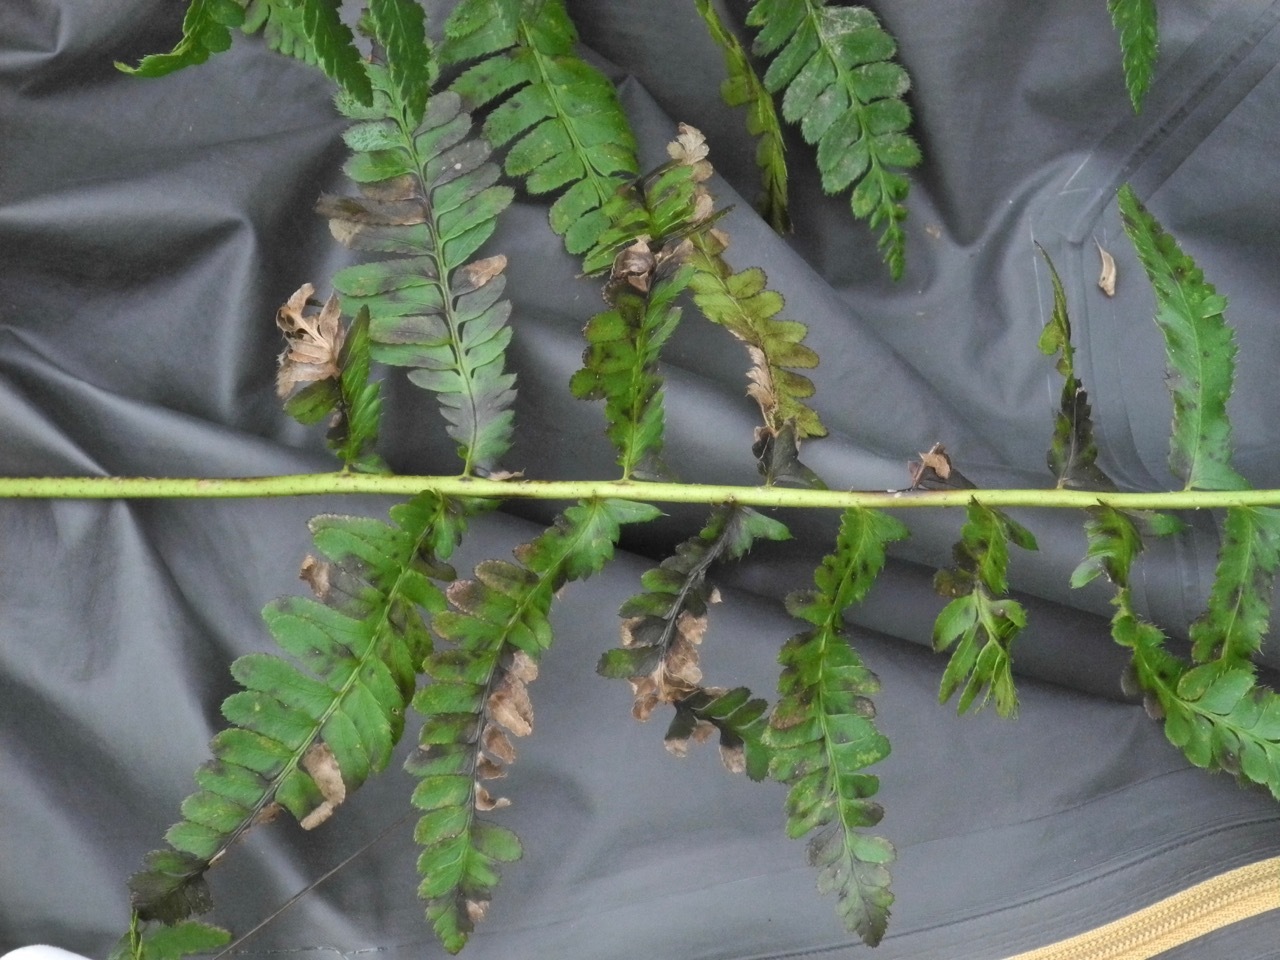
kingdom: Plantae
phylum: Tracheophyta
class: Polypodiopsida
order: Polypodiales
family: Dryopteridaceae
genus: Polystichum
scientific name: Polystichum acrostichoides
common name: Christmas fern
